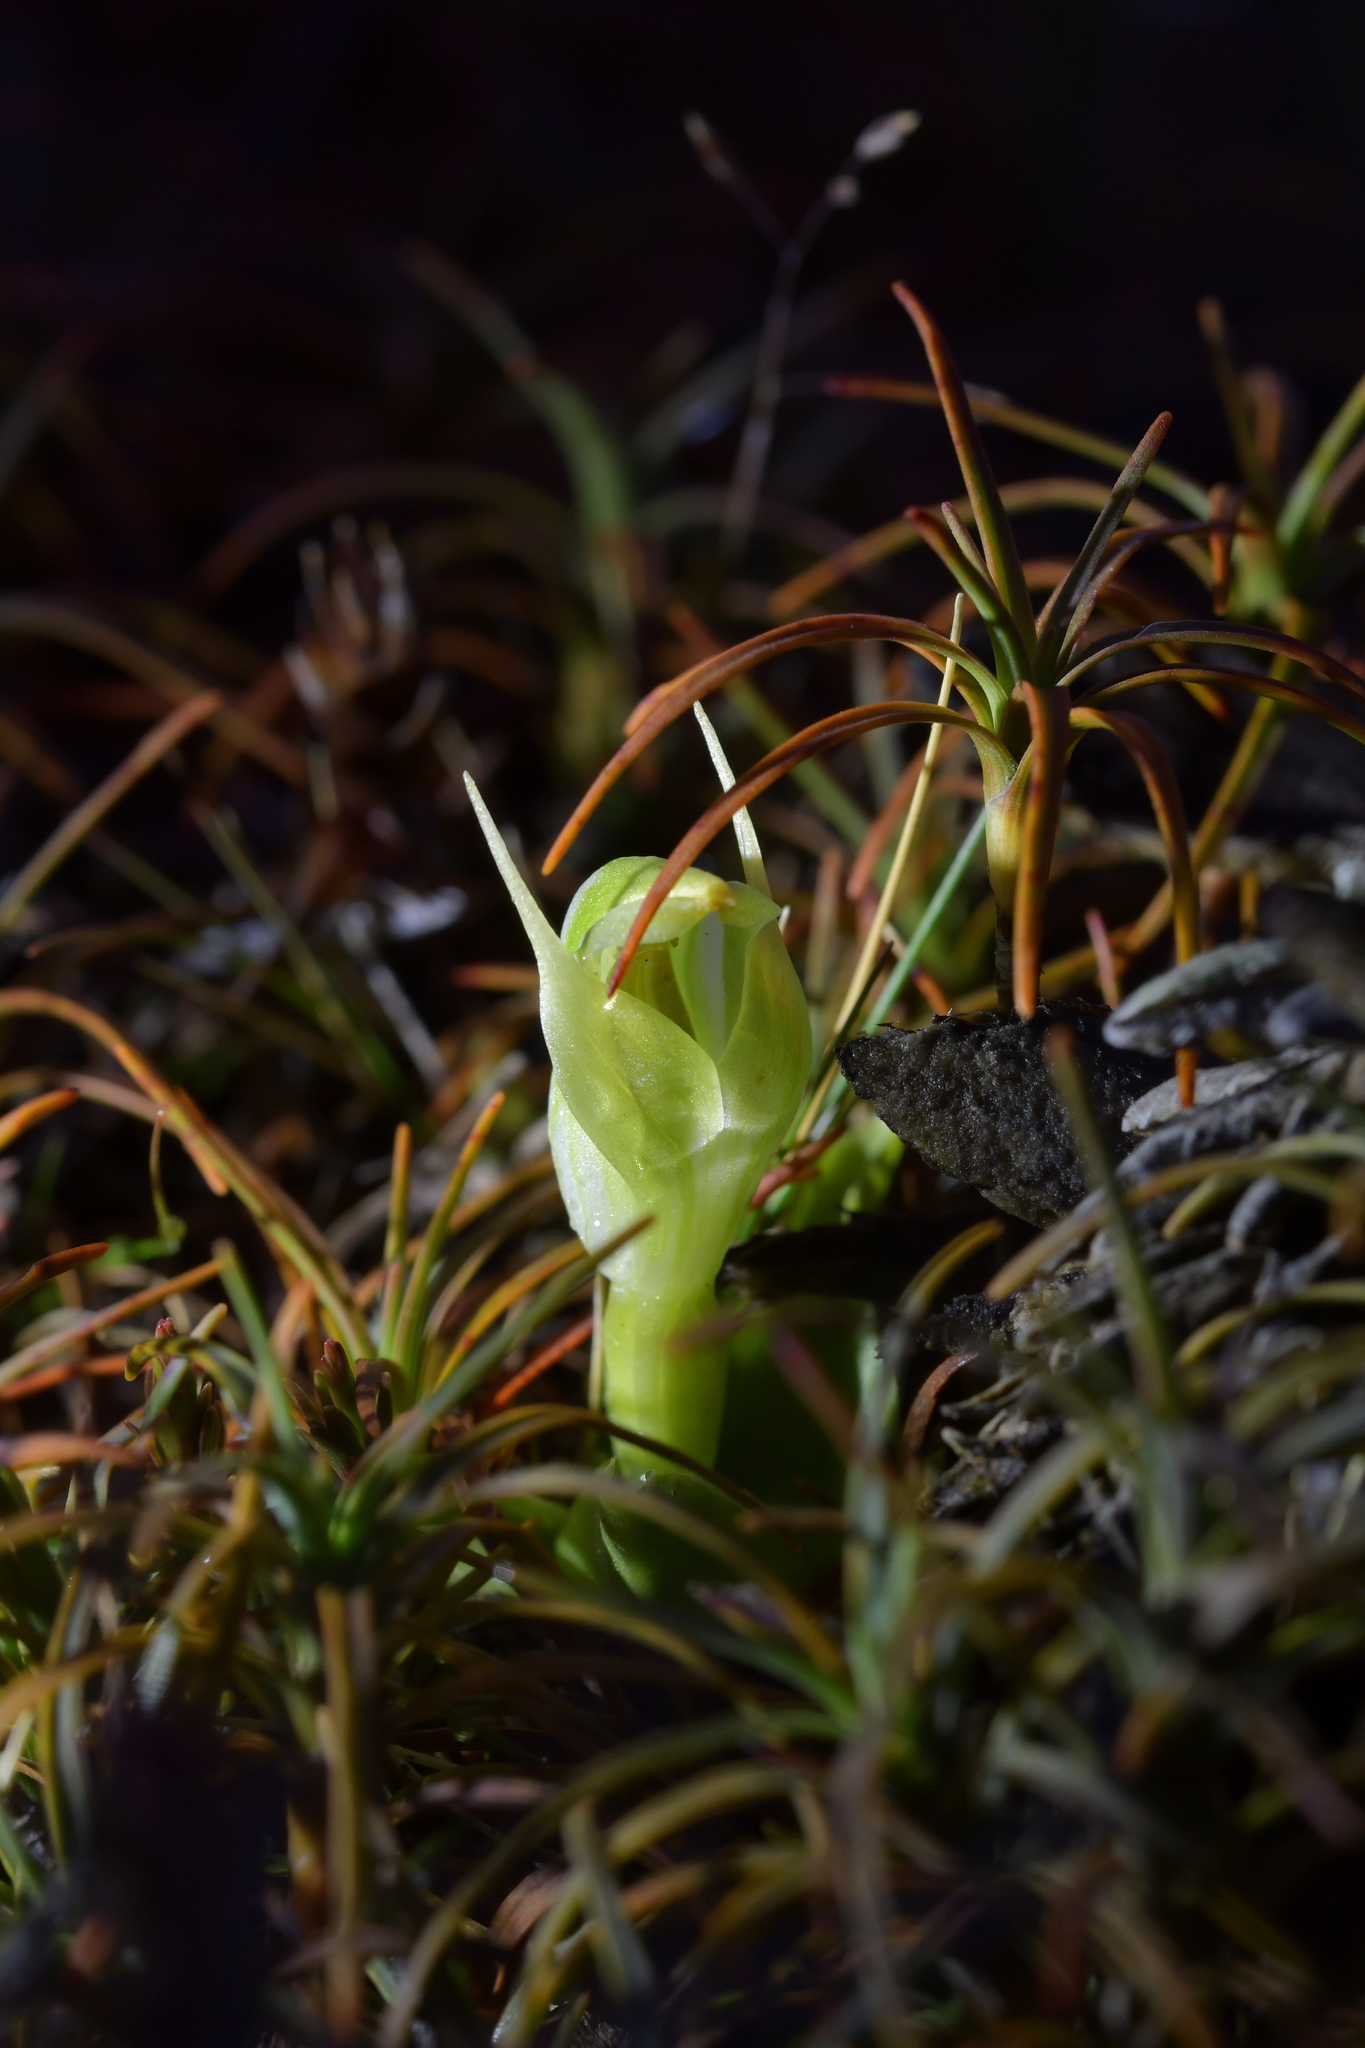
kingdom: Plantae
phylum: Tracheophyta
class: Liliopsida
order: Asparagales
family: Orchidaceae
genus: Pterostylis
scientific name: Pterostylis humilis
